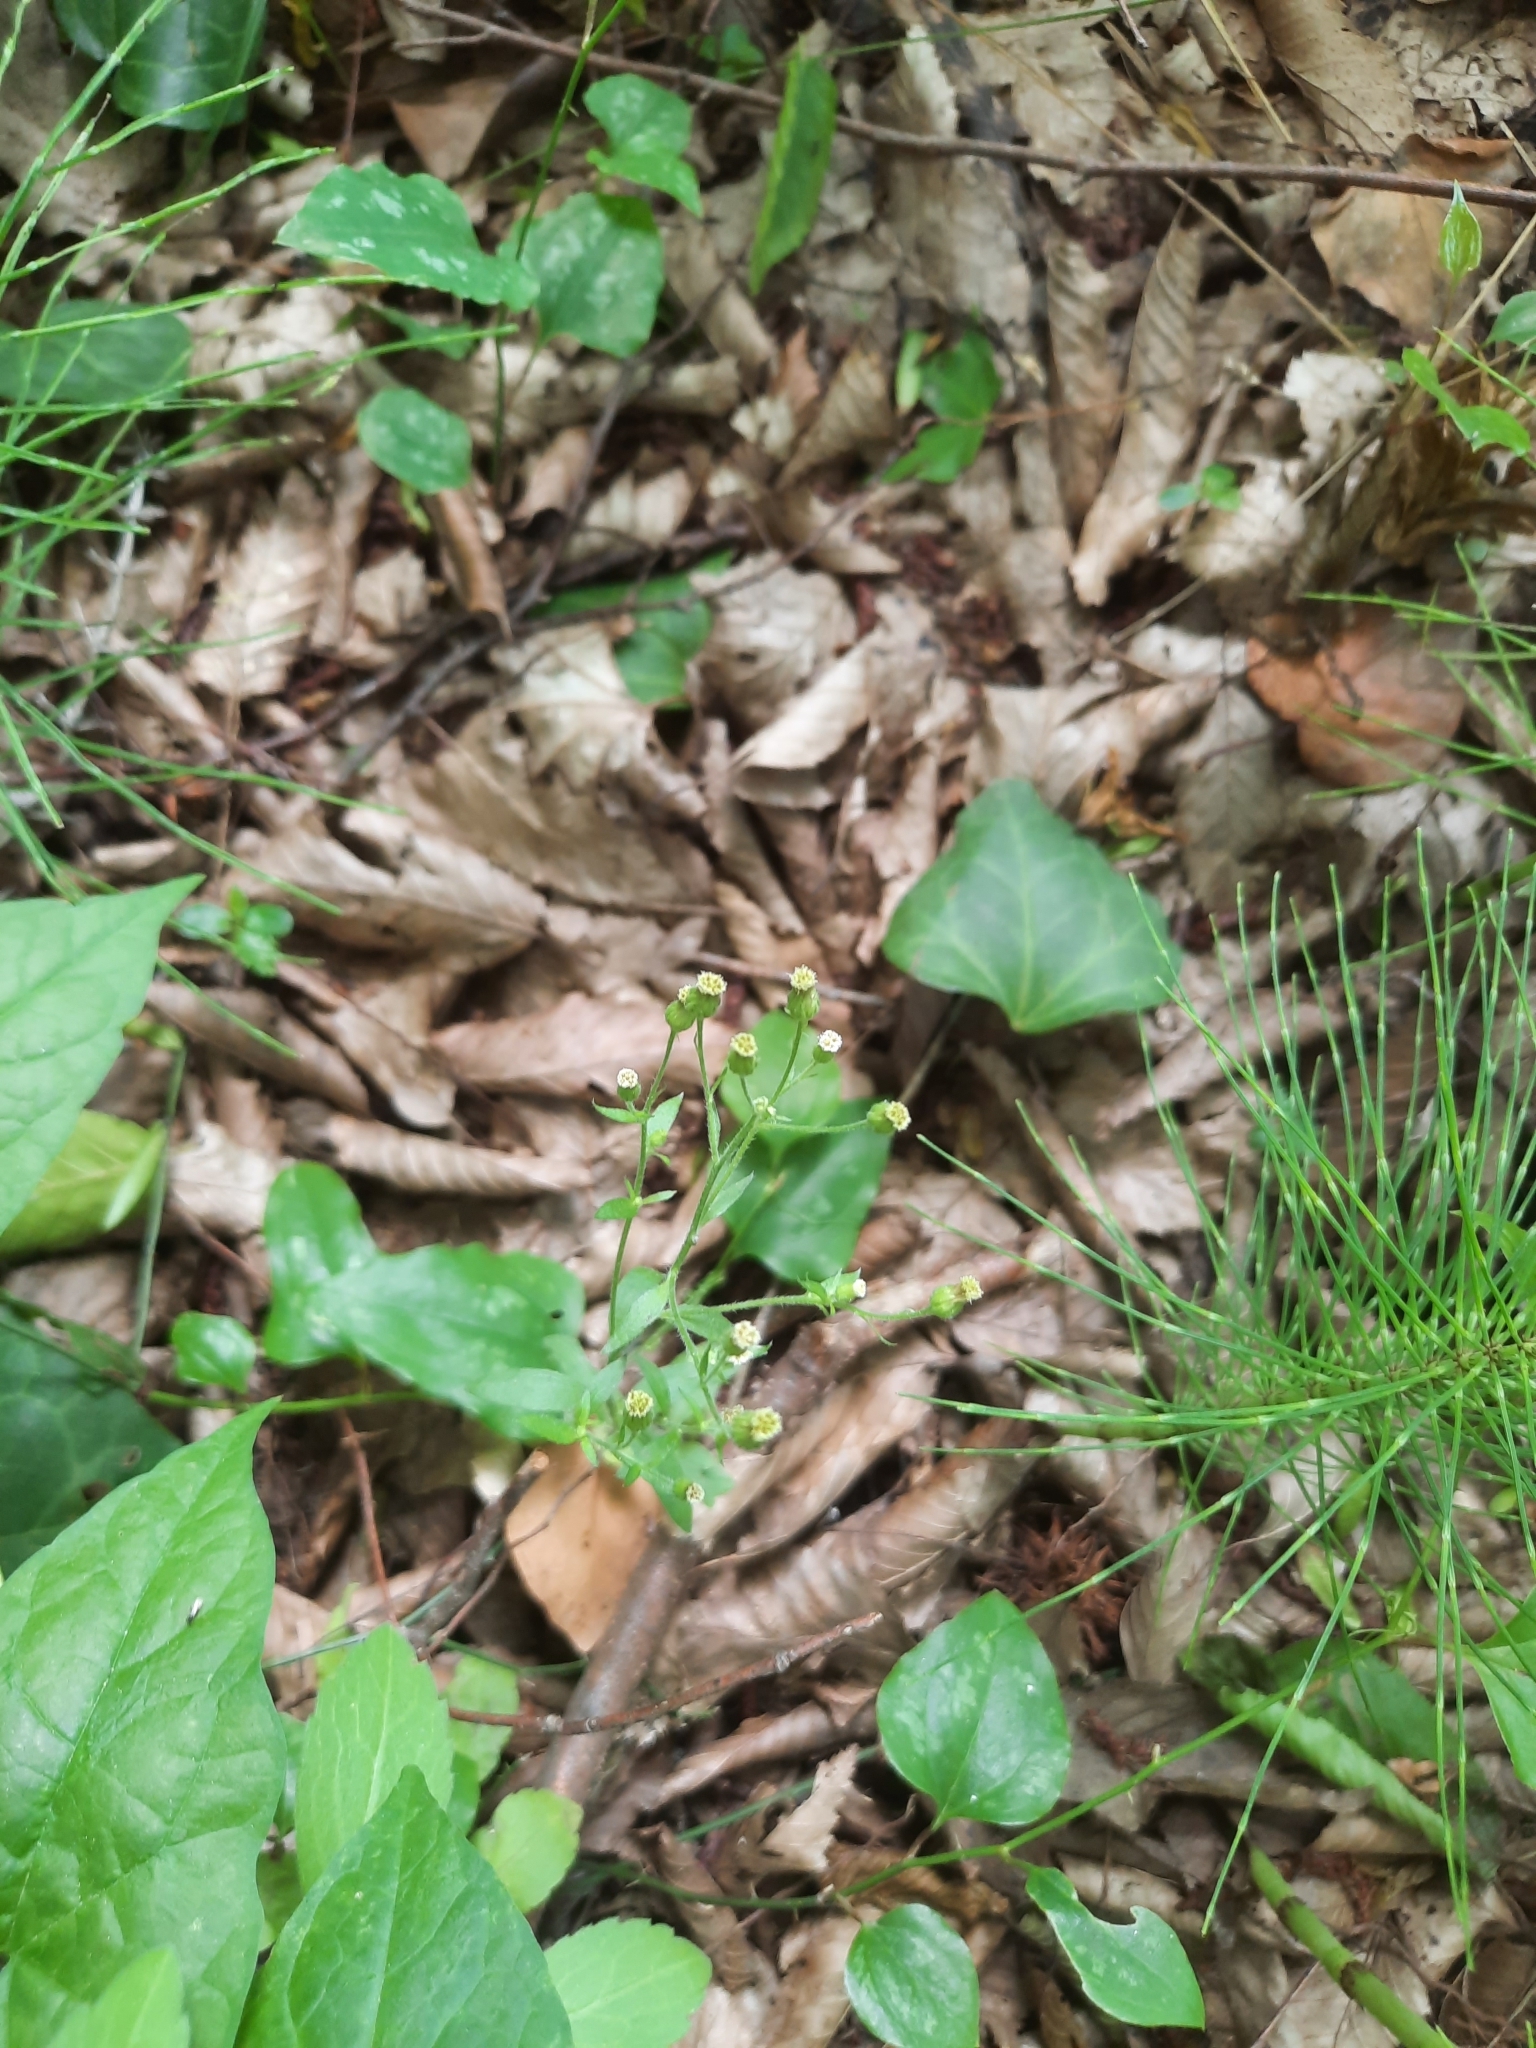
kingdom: Plantae
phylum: Tracheophyta
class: Magnoliopsida
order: Asterales
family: Asteraceae
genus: Erigeron
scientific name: Erigeron canadensis
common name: Canadian fleabane
